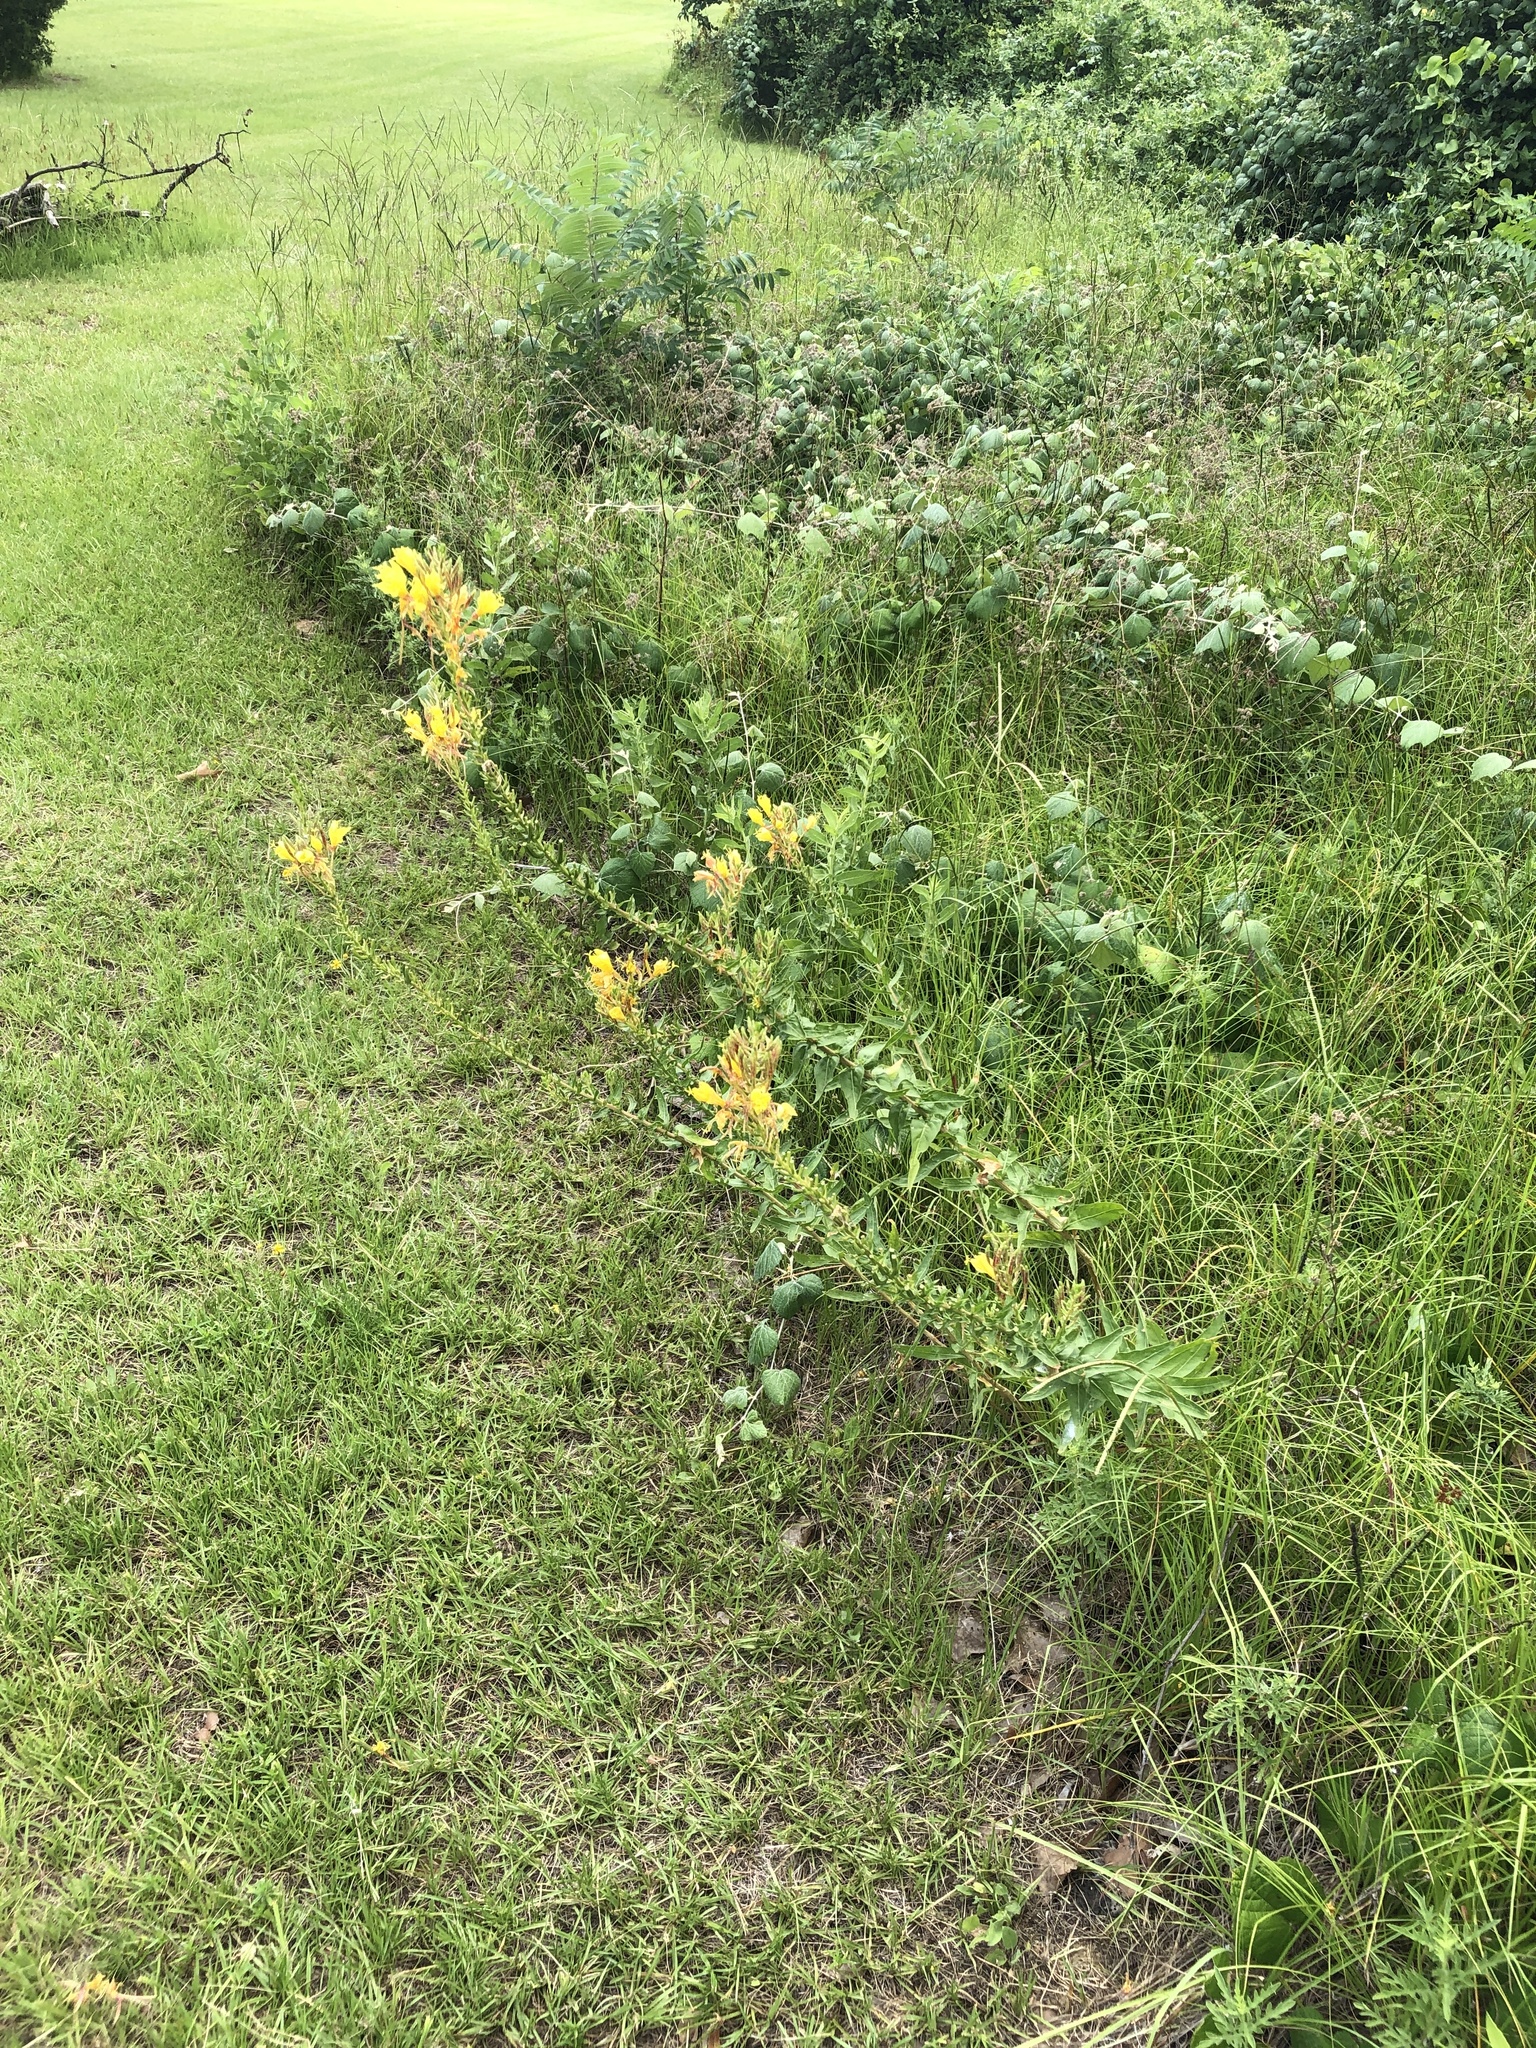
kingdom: Plantae
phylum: Tracheophyta
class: Magnoliopsida
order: Myrtales
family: Onagraceae
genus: Oenothera
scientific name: Oenothera rhombipetala
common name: Four-points evening-primrose
